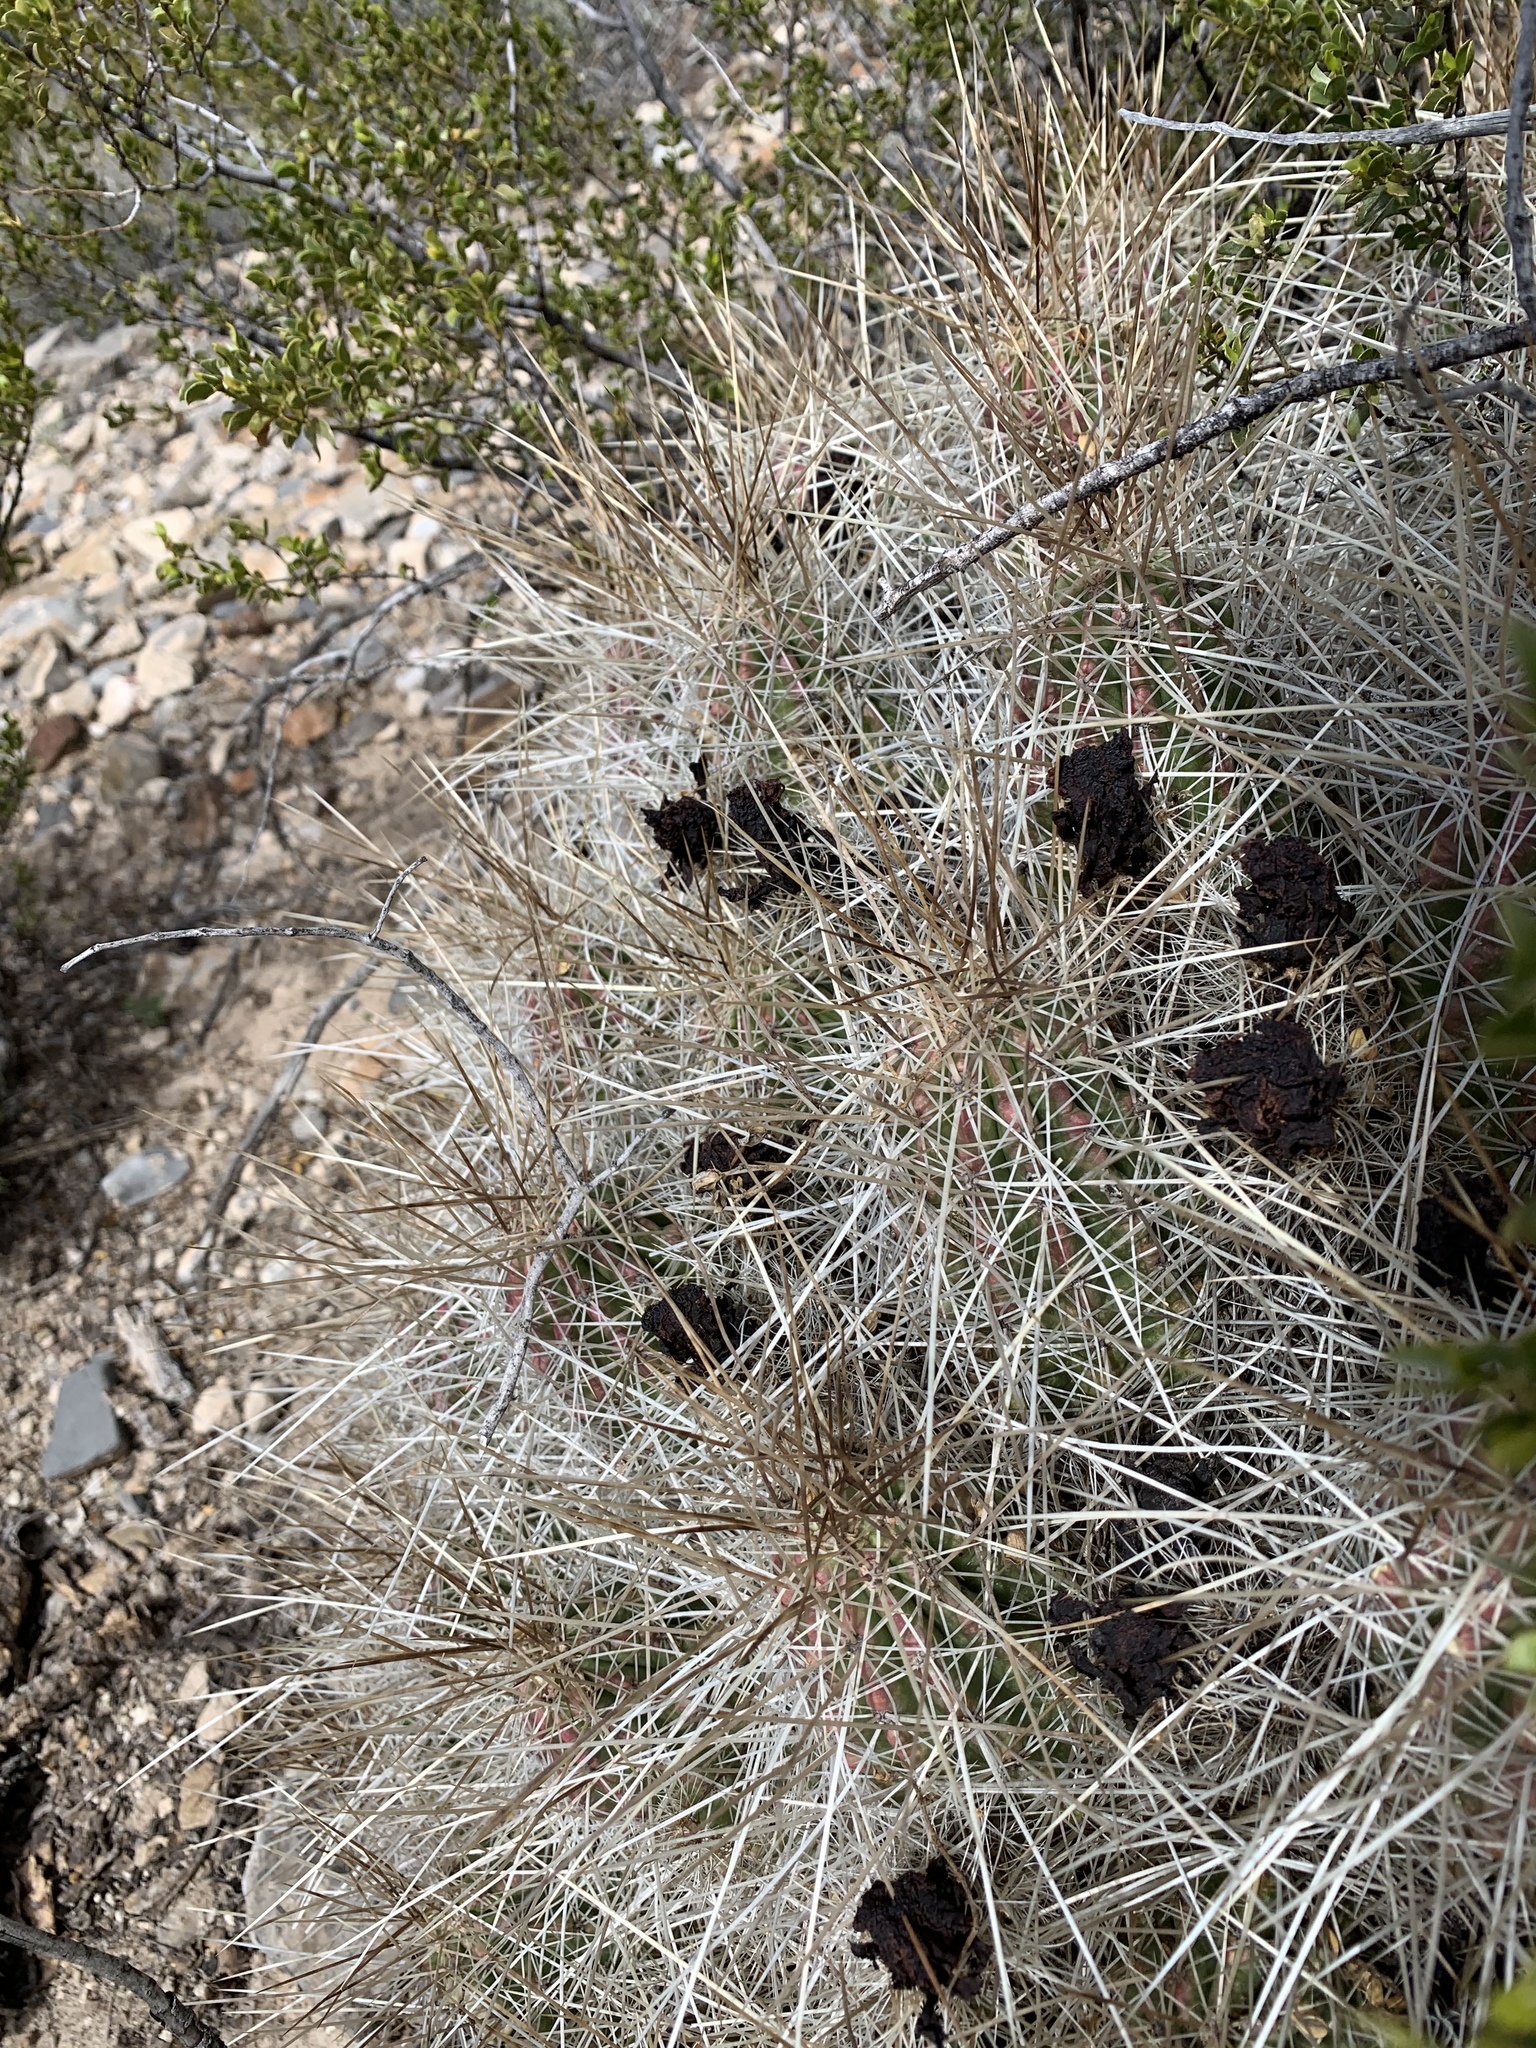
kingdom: Plantae
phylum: Tracheophyta
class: Magnoliopsida
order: Caryophyllales
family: Cactaceae
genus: Echinocereus
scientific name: Echinocereus stramineus
